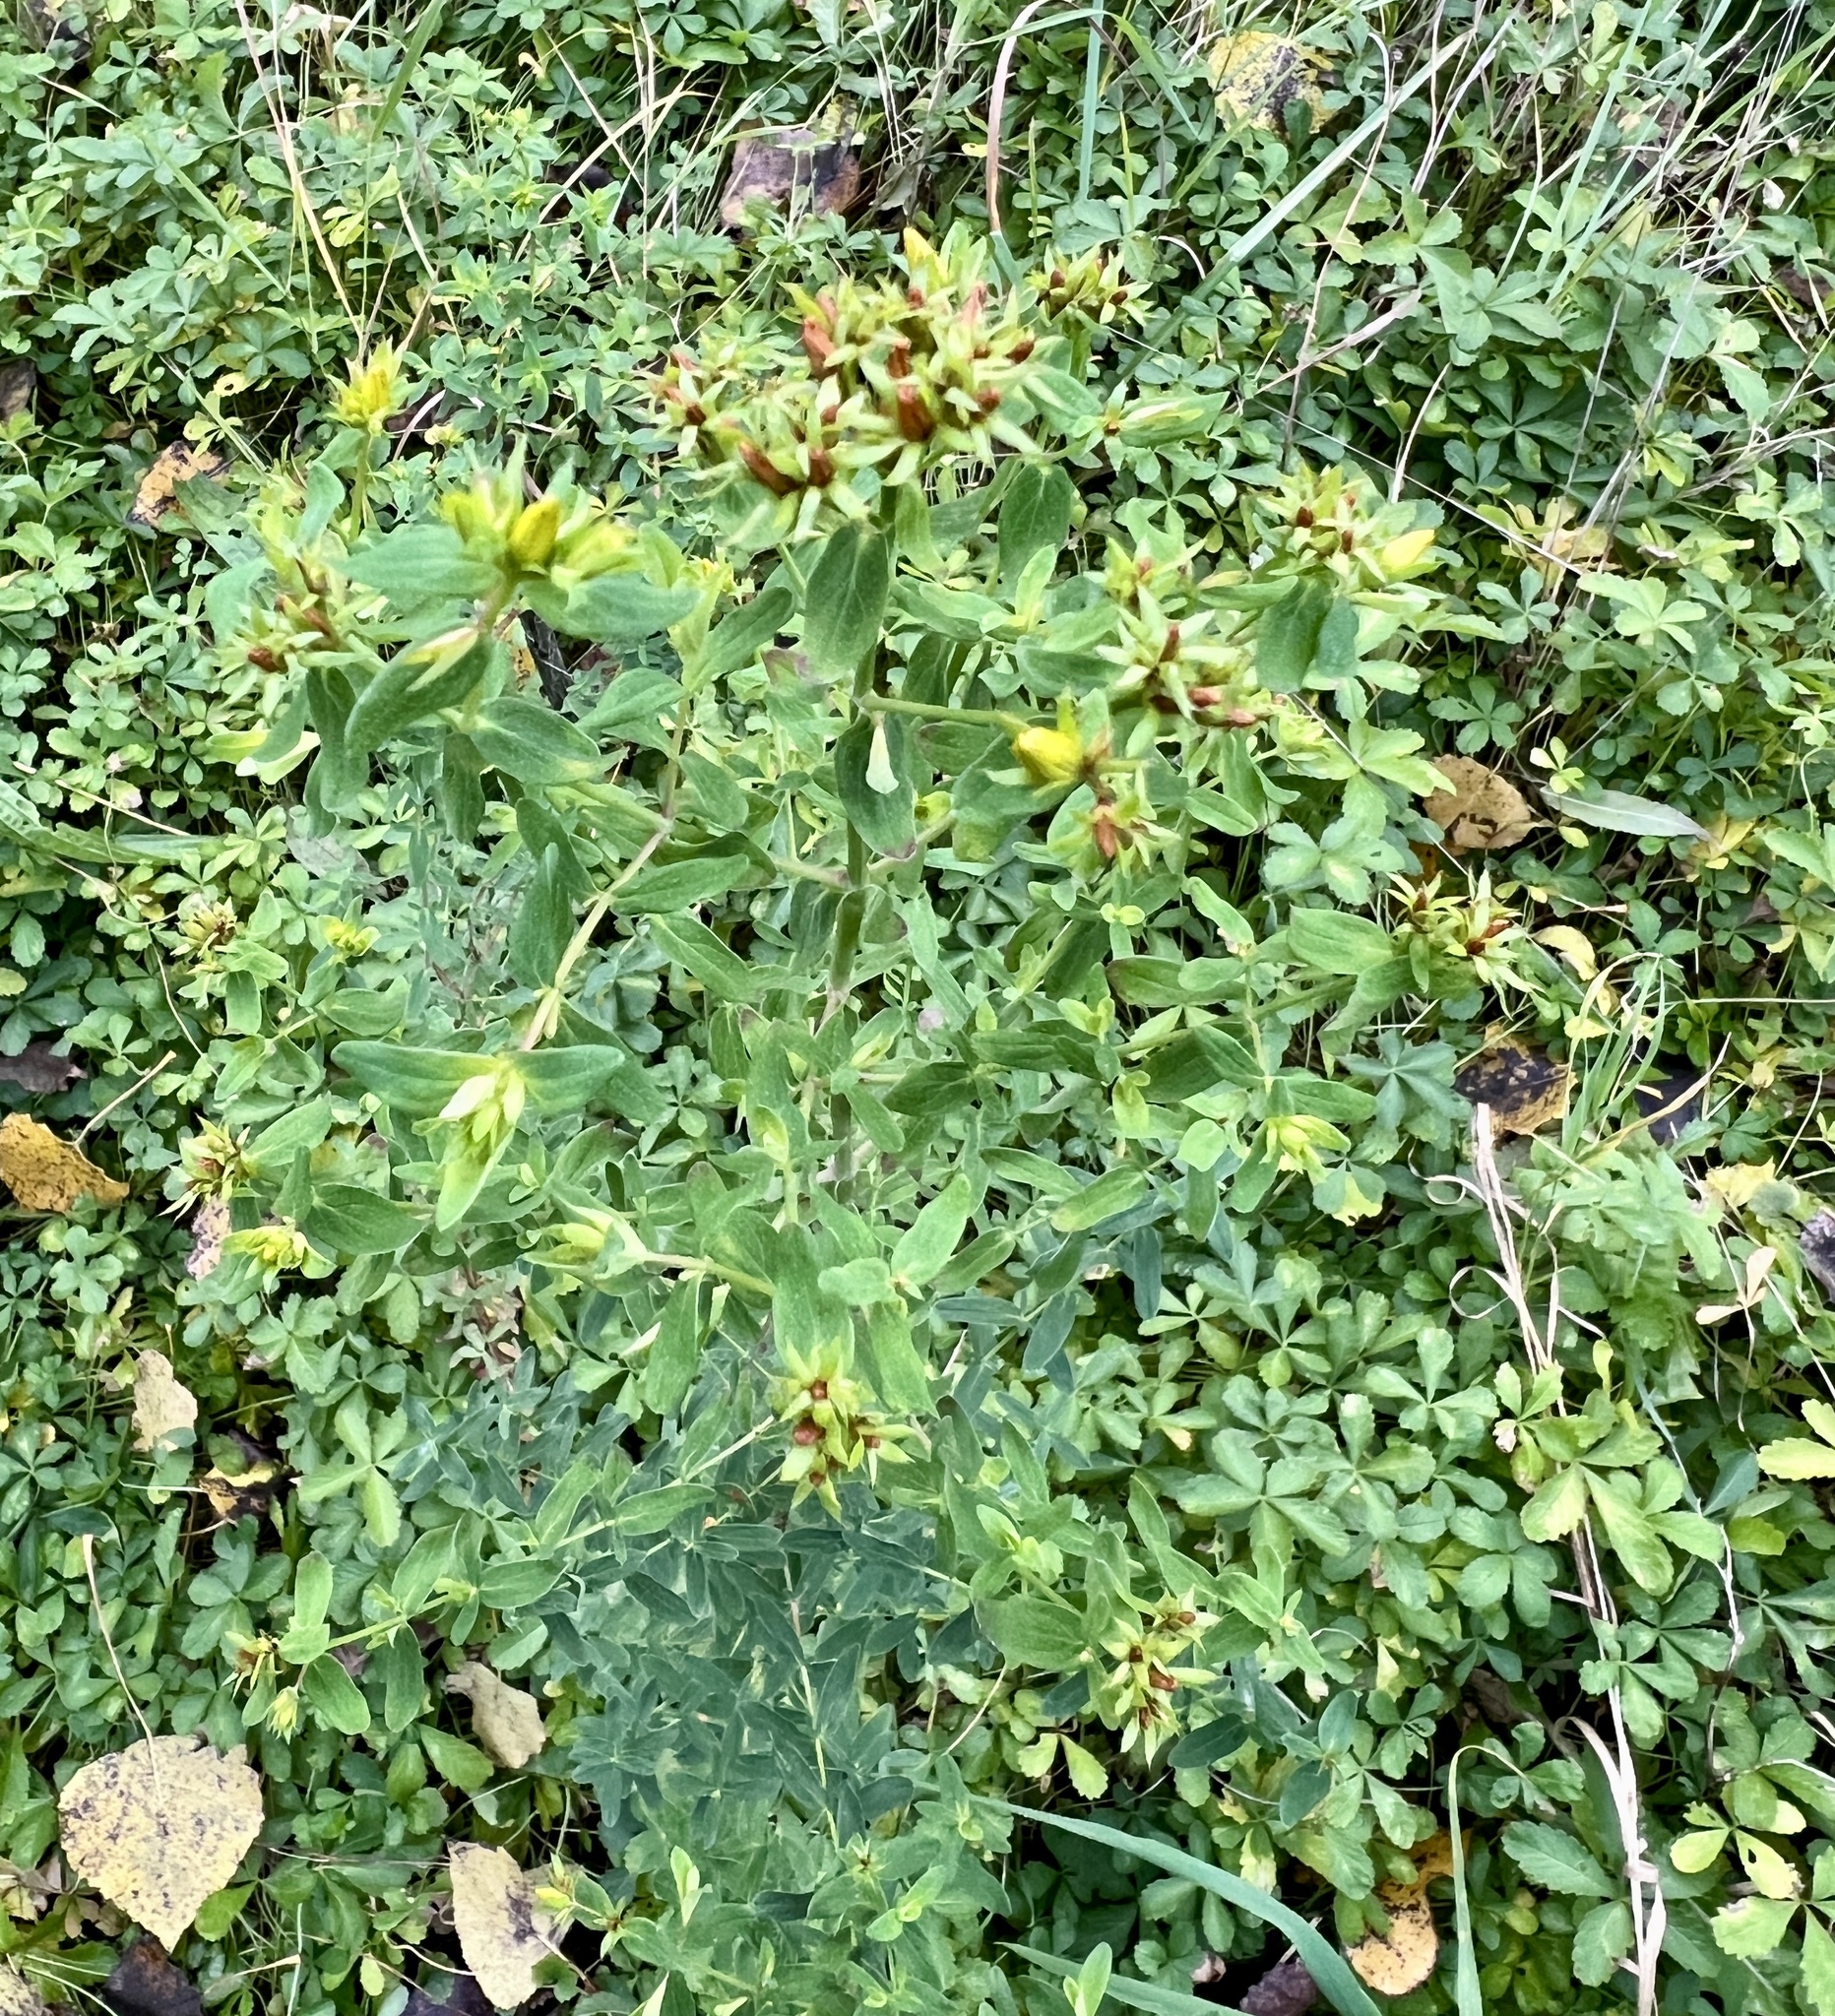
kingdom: Plantae
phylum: Tracheophyta
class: Magnoliopsida
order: Malpighiales
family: Hypericaceae
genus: Hypericum
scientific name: Hypericum perforatum
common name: Common st. johnswort
